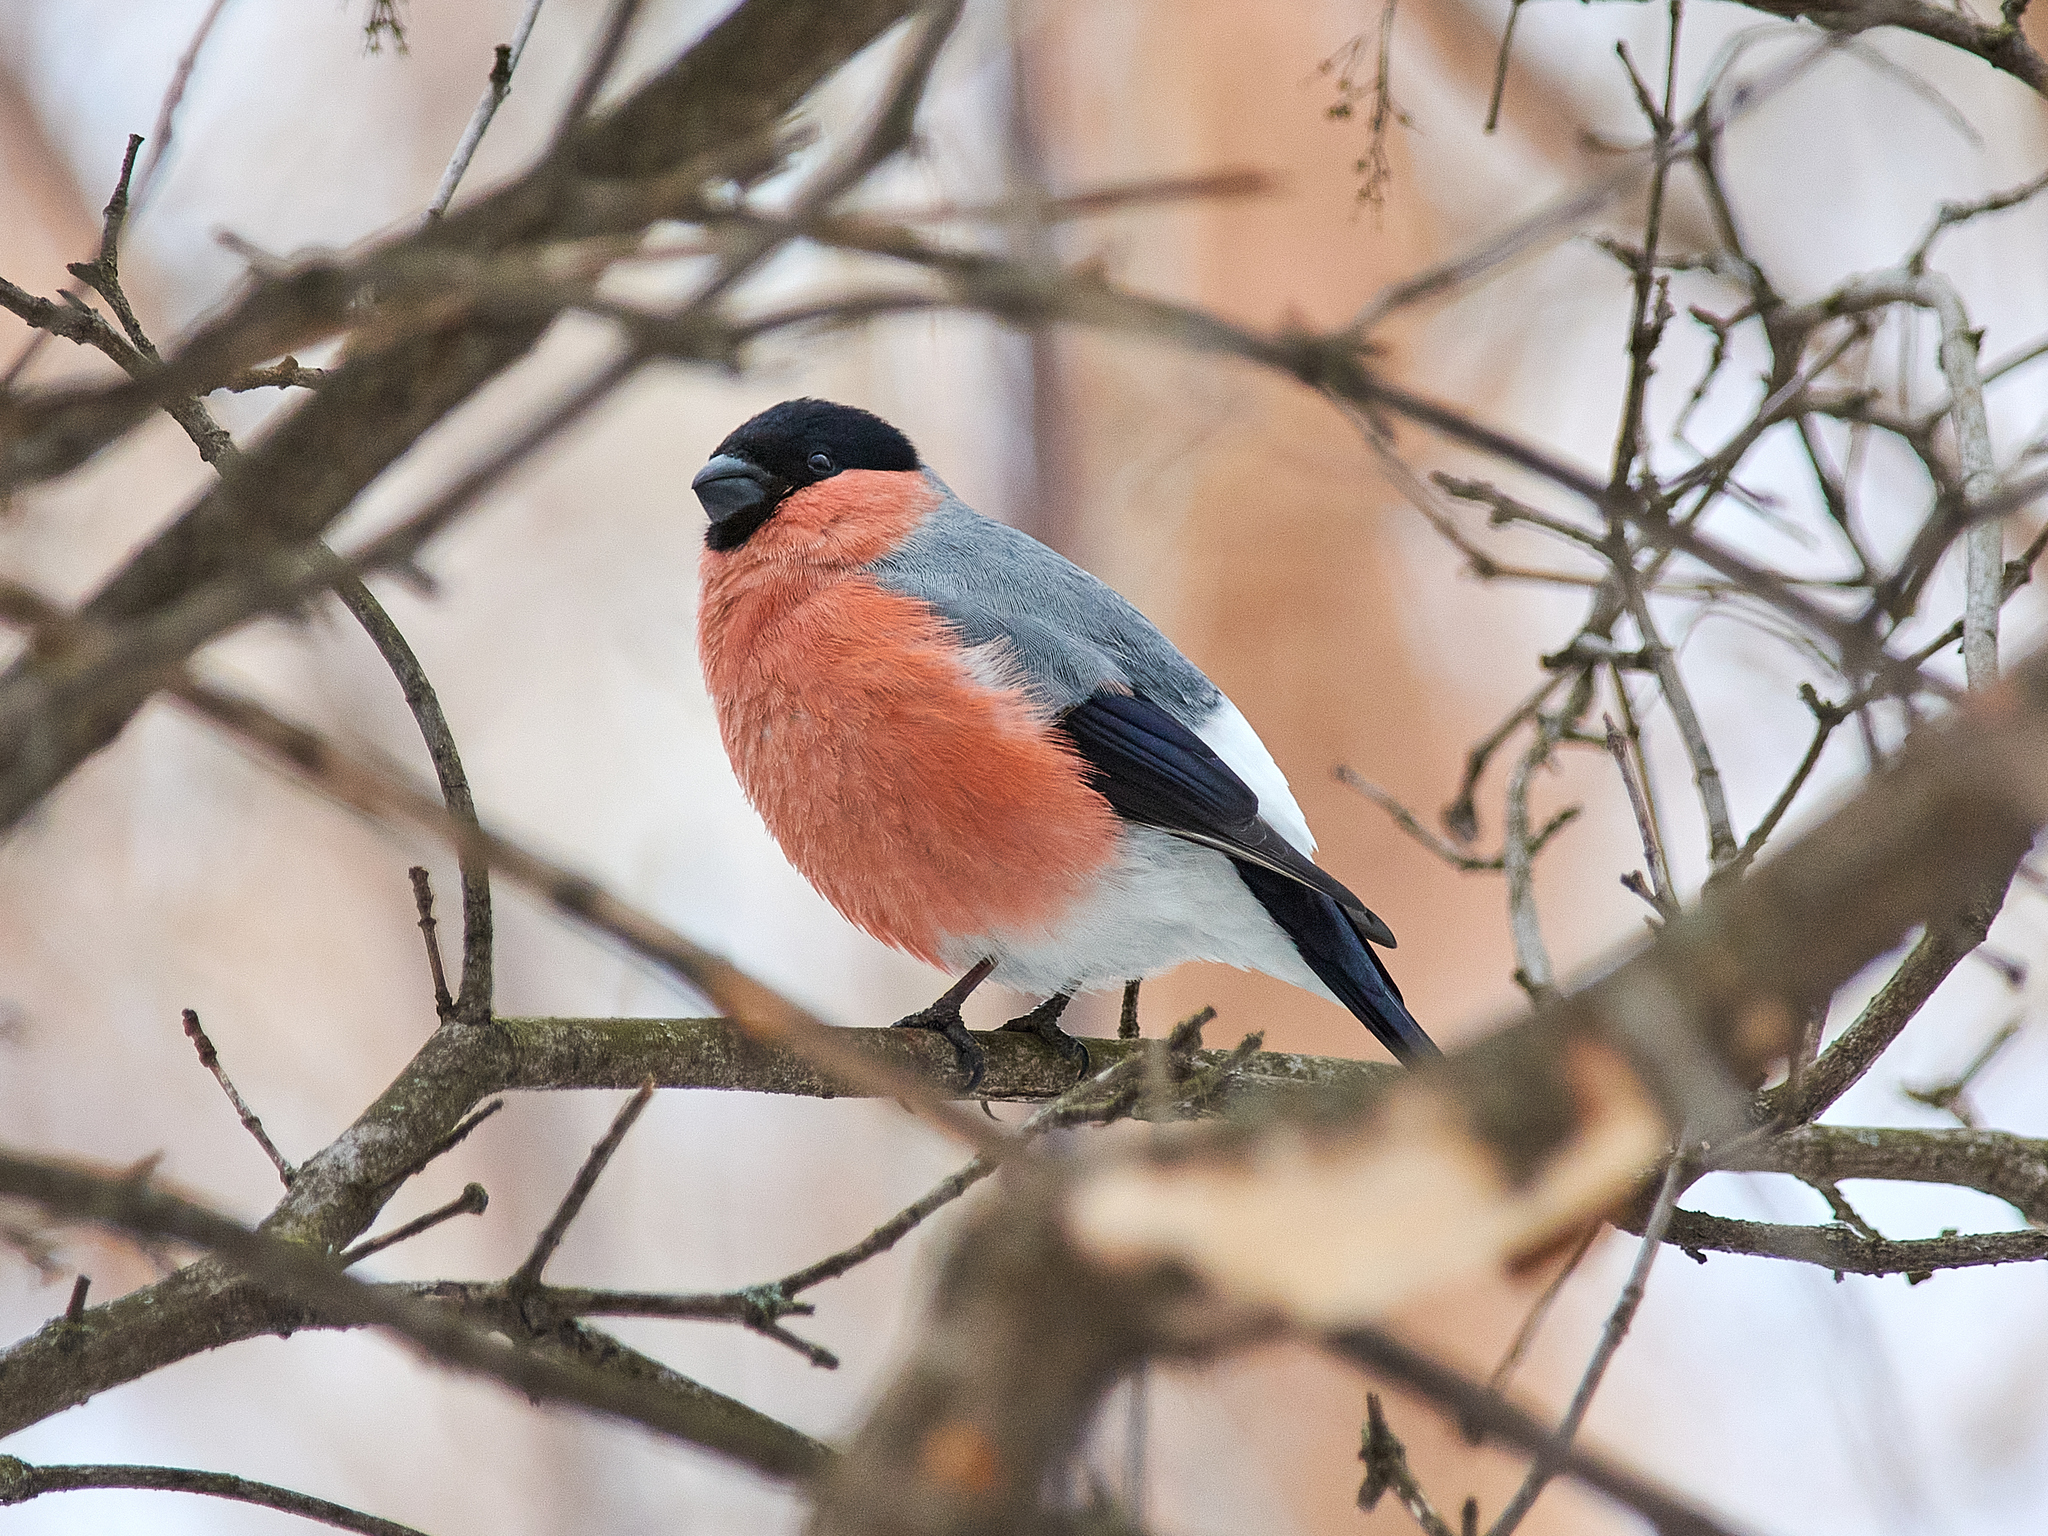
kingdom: Animalia
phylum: Chordata
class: Aves
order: Passeriformes
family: Fringillidae
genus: Pyrrhula
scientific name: Pyrrhula pyrrhula
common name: Eurasian bullfinch
